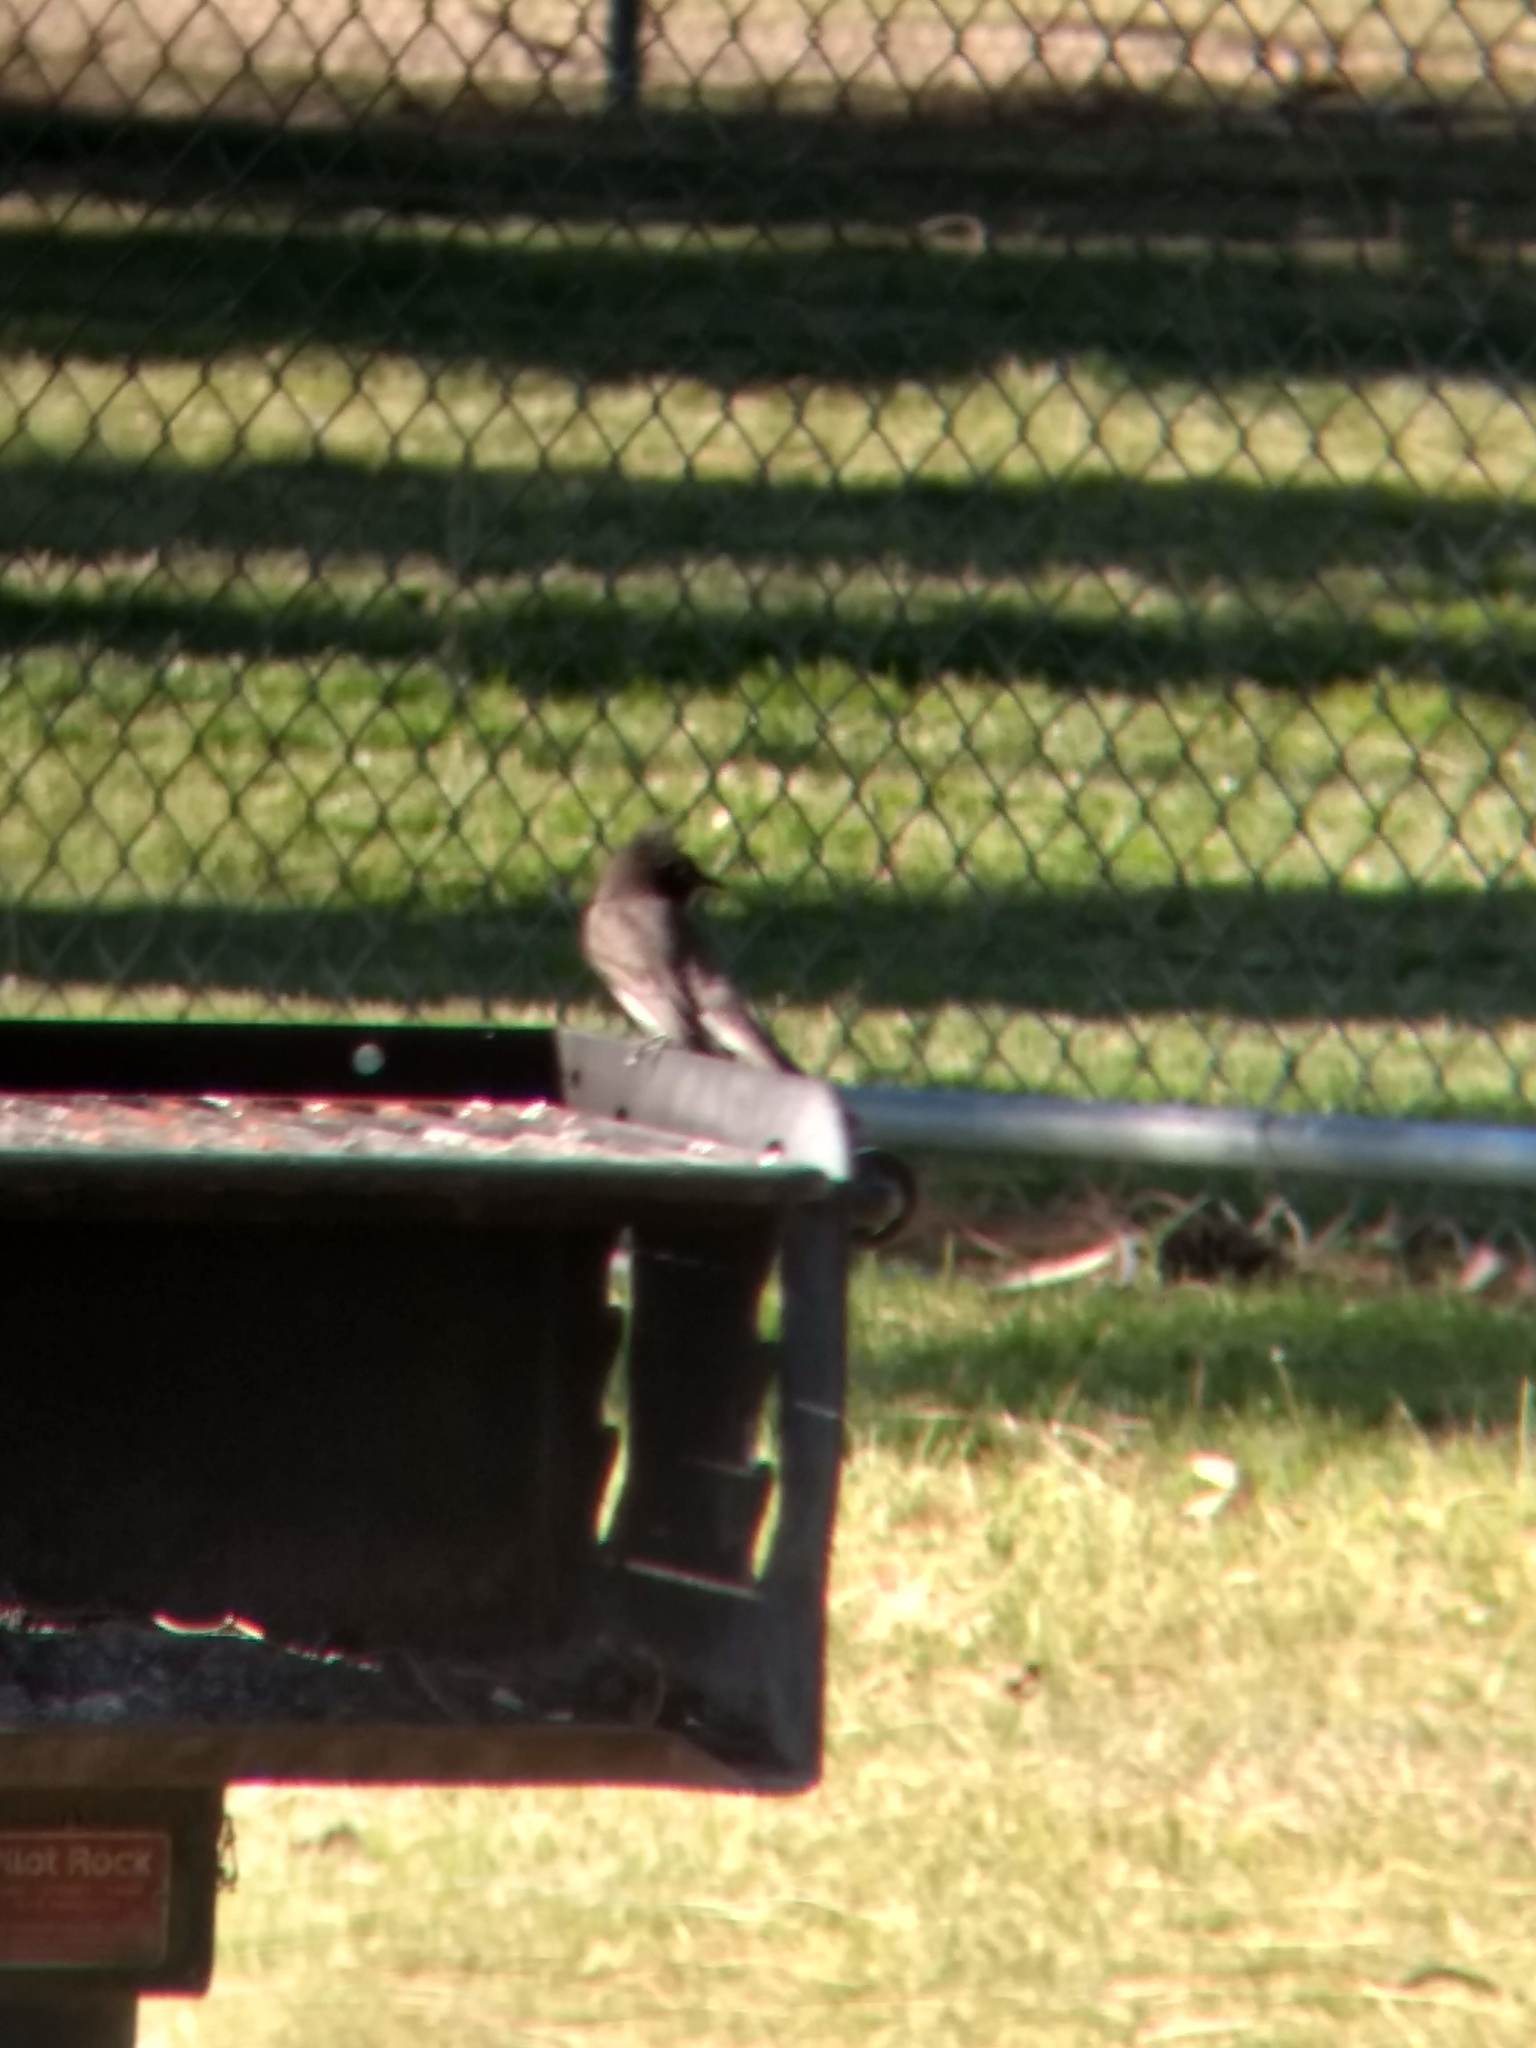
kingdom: Animalia
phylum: Chordata
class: Aves
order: Passeriformes
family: Tyrannidae
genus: Sayornis
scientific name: Sayornis nigricans
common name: Black phoebe
